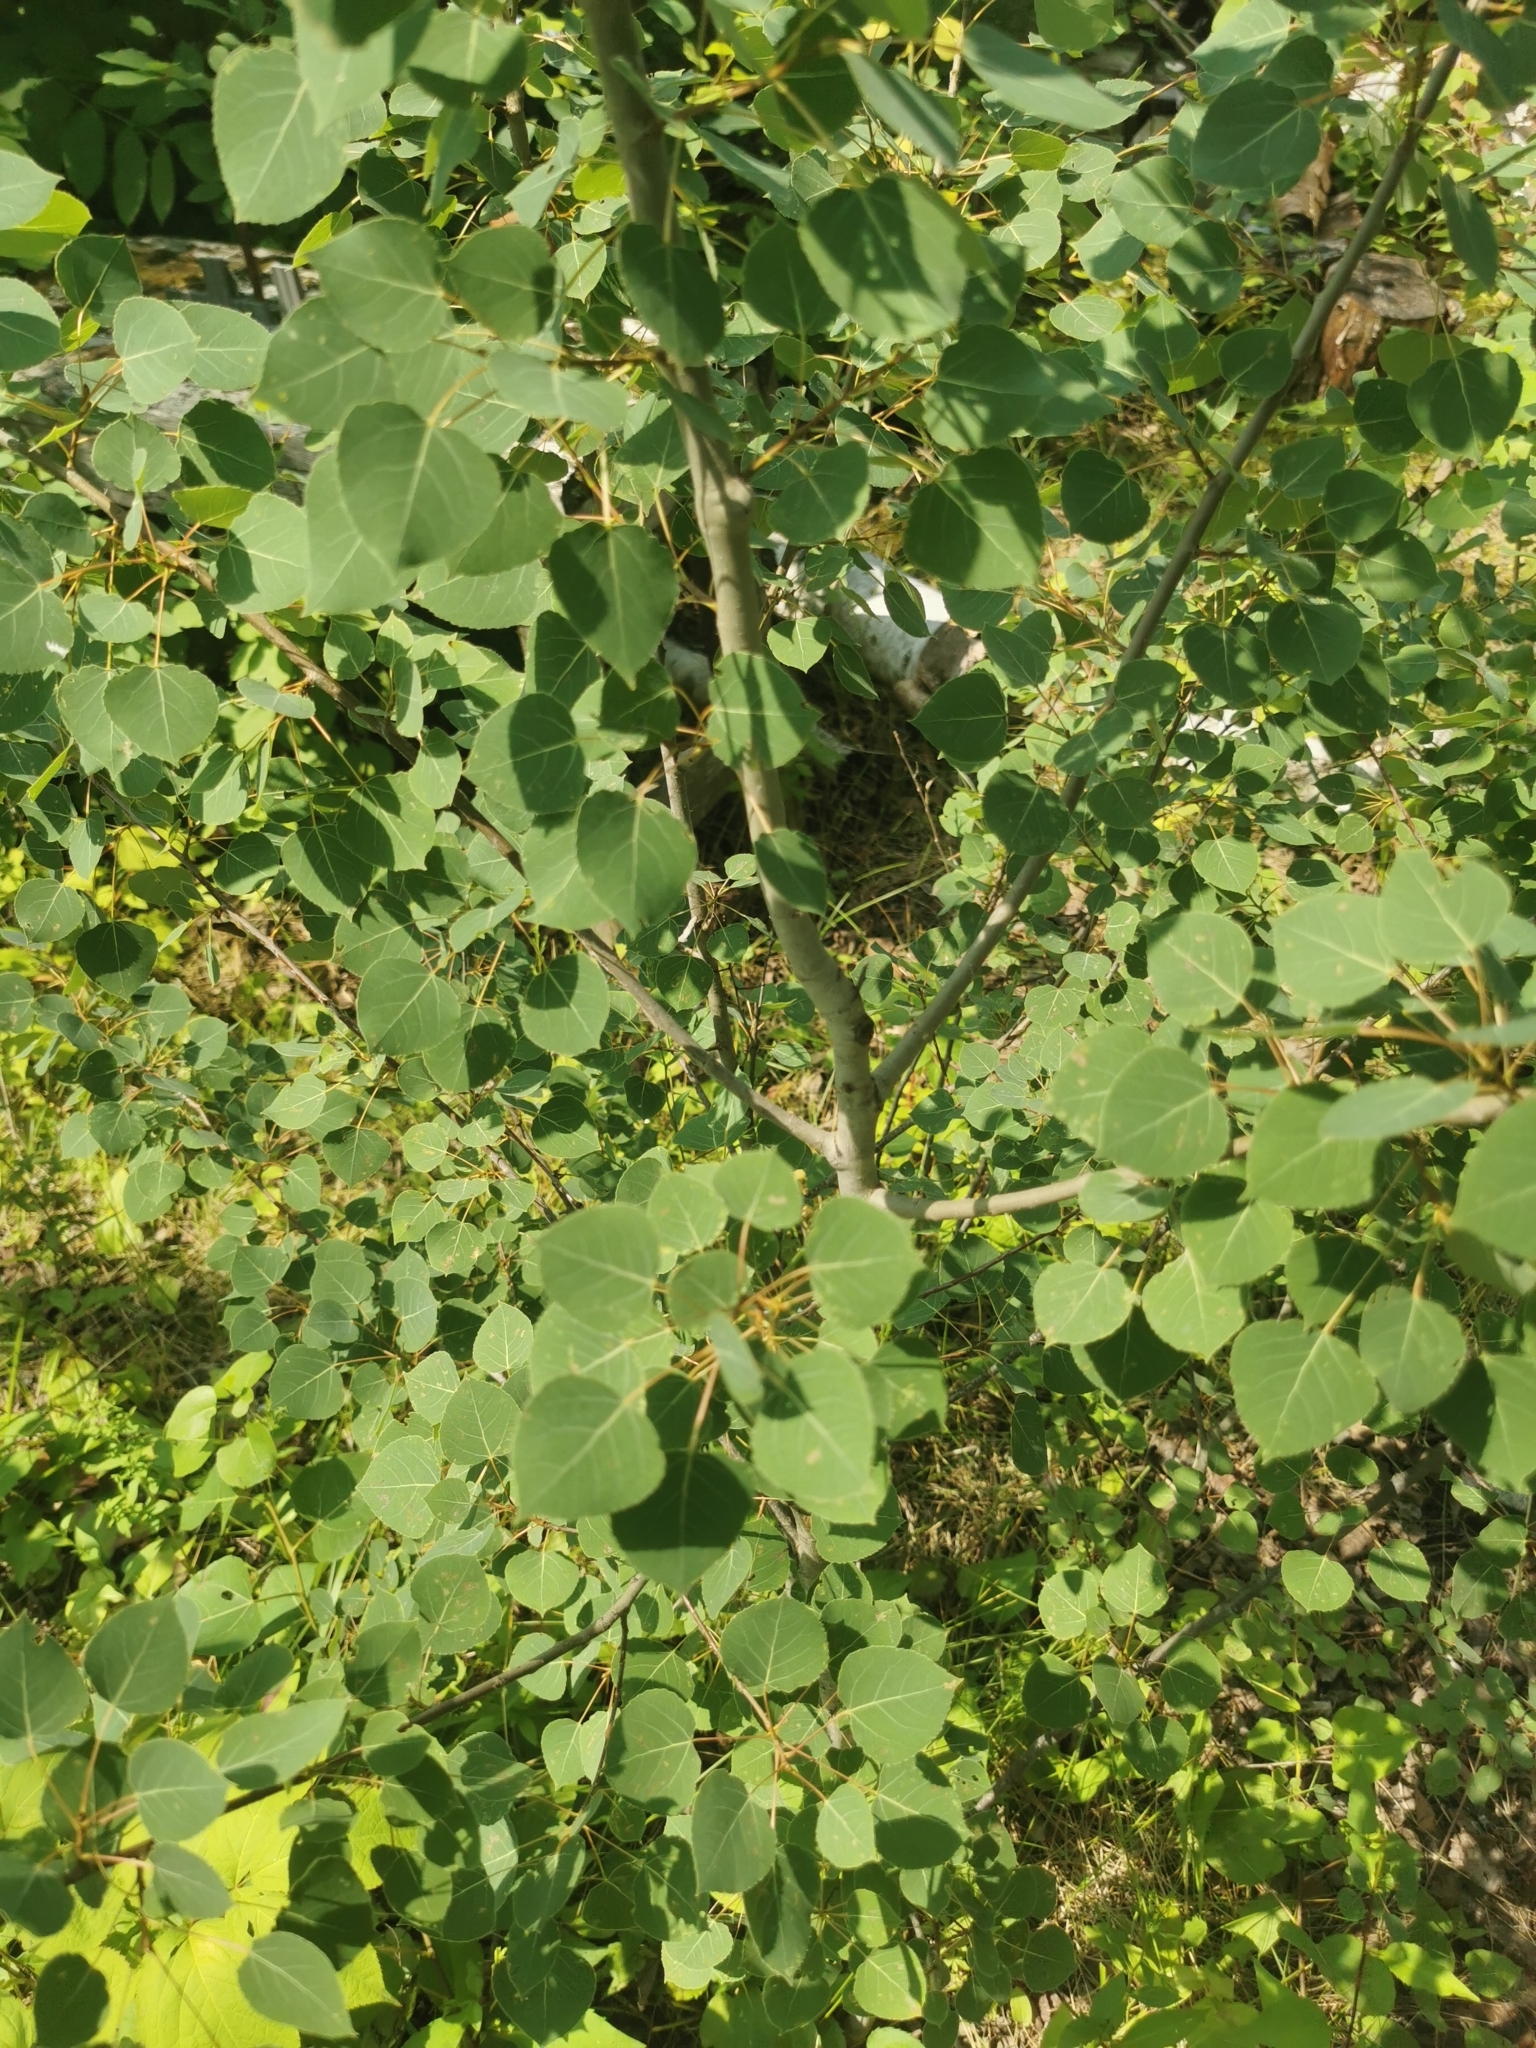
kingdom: Plantae
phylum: Tracheophyta
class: Magnoliopsida
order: Malpighiales
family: Salicaceae
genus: Populus
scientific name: Populus tremuloides
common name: Quaking aspen
